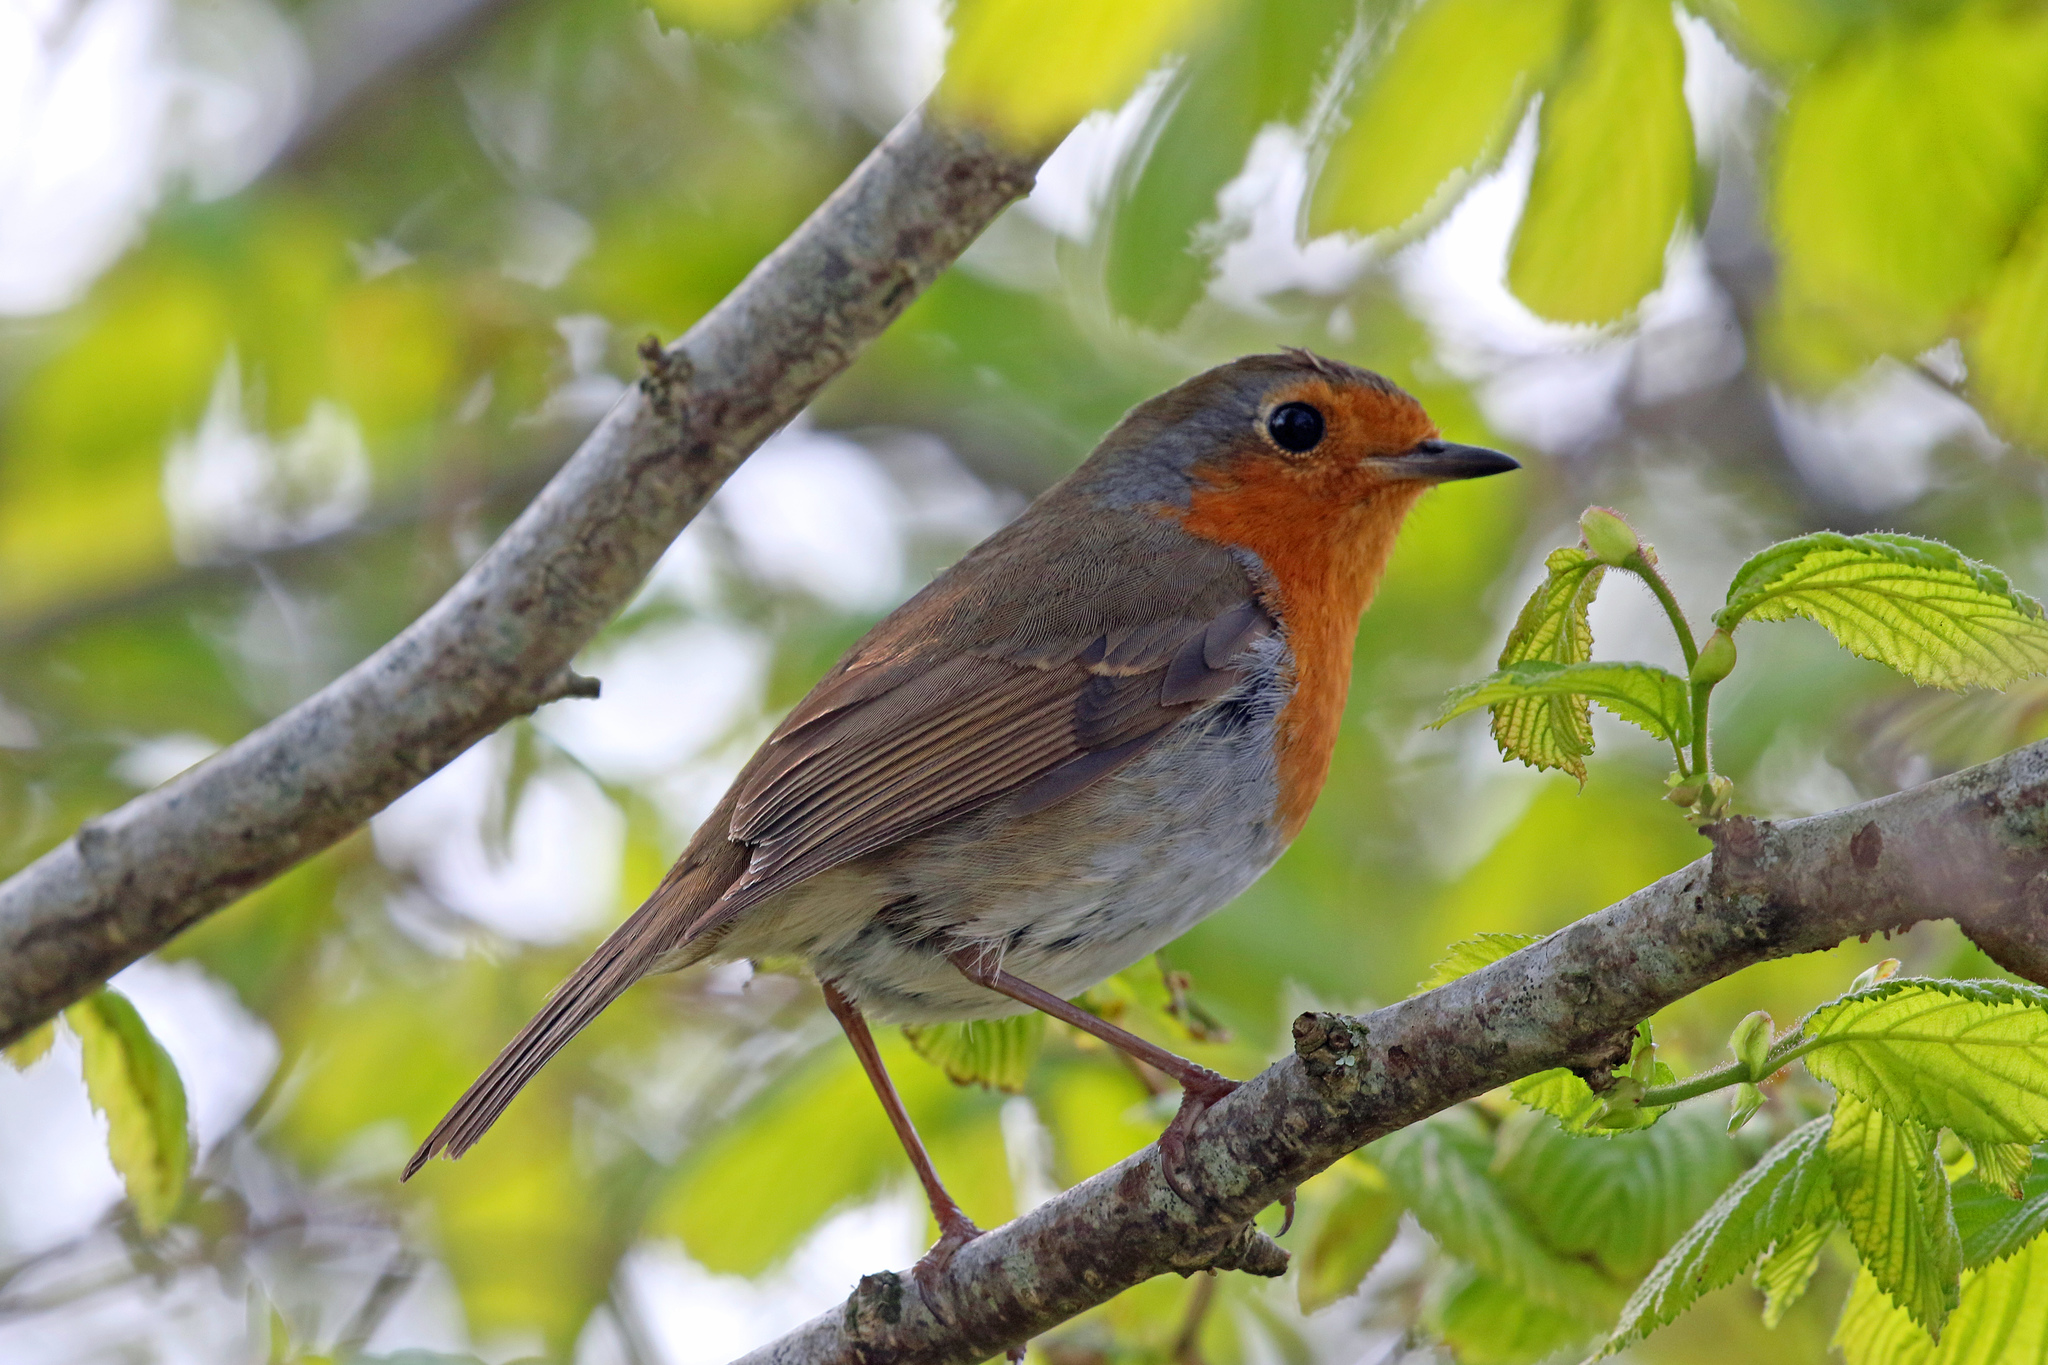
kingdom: Animalia
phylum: Chordata
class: Aves
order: Passeriformes
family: Muscicapidae
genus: Erithacus
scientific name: Erithacus rubecula
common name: European robin
